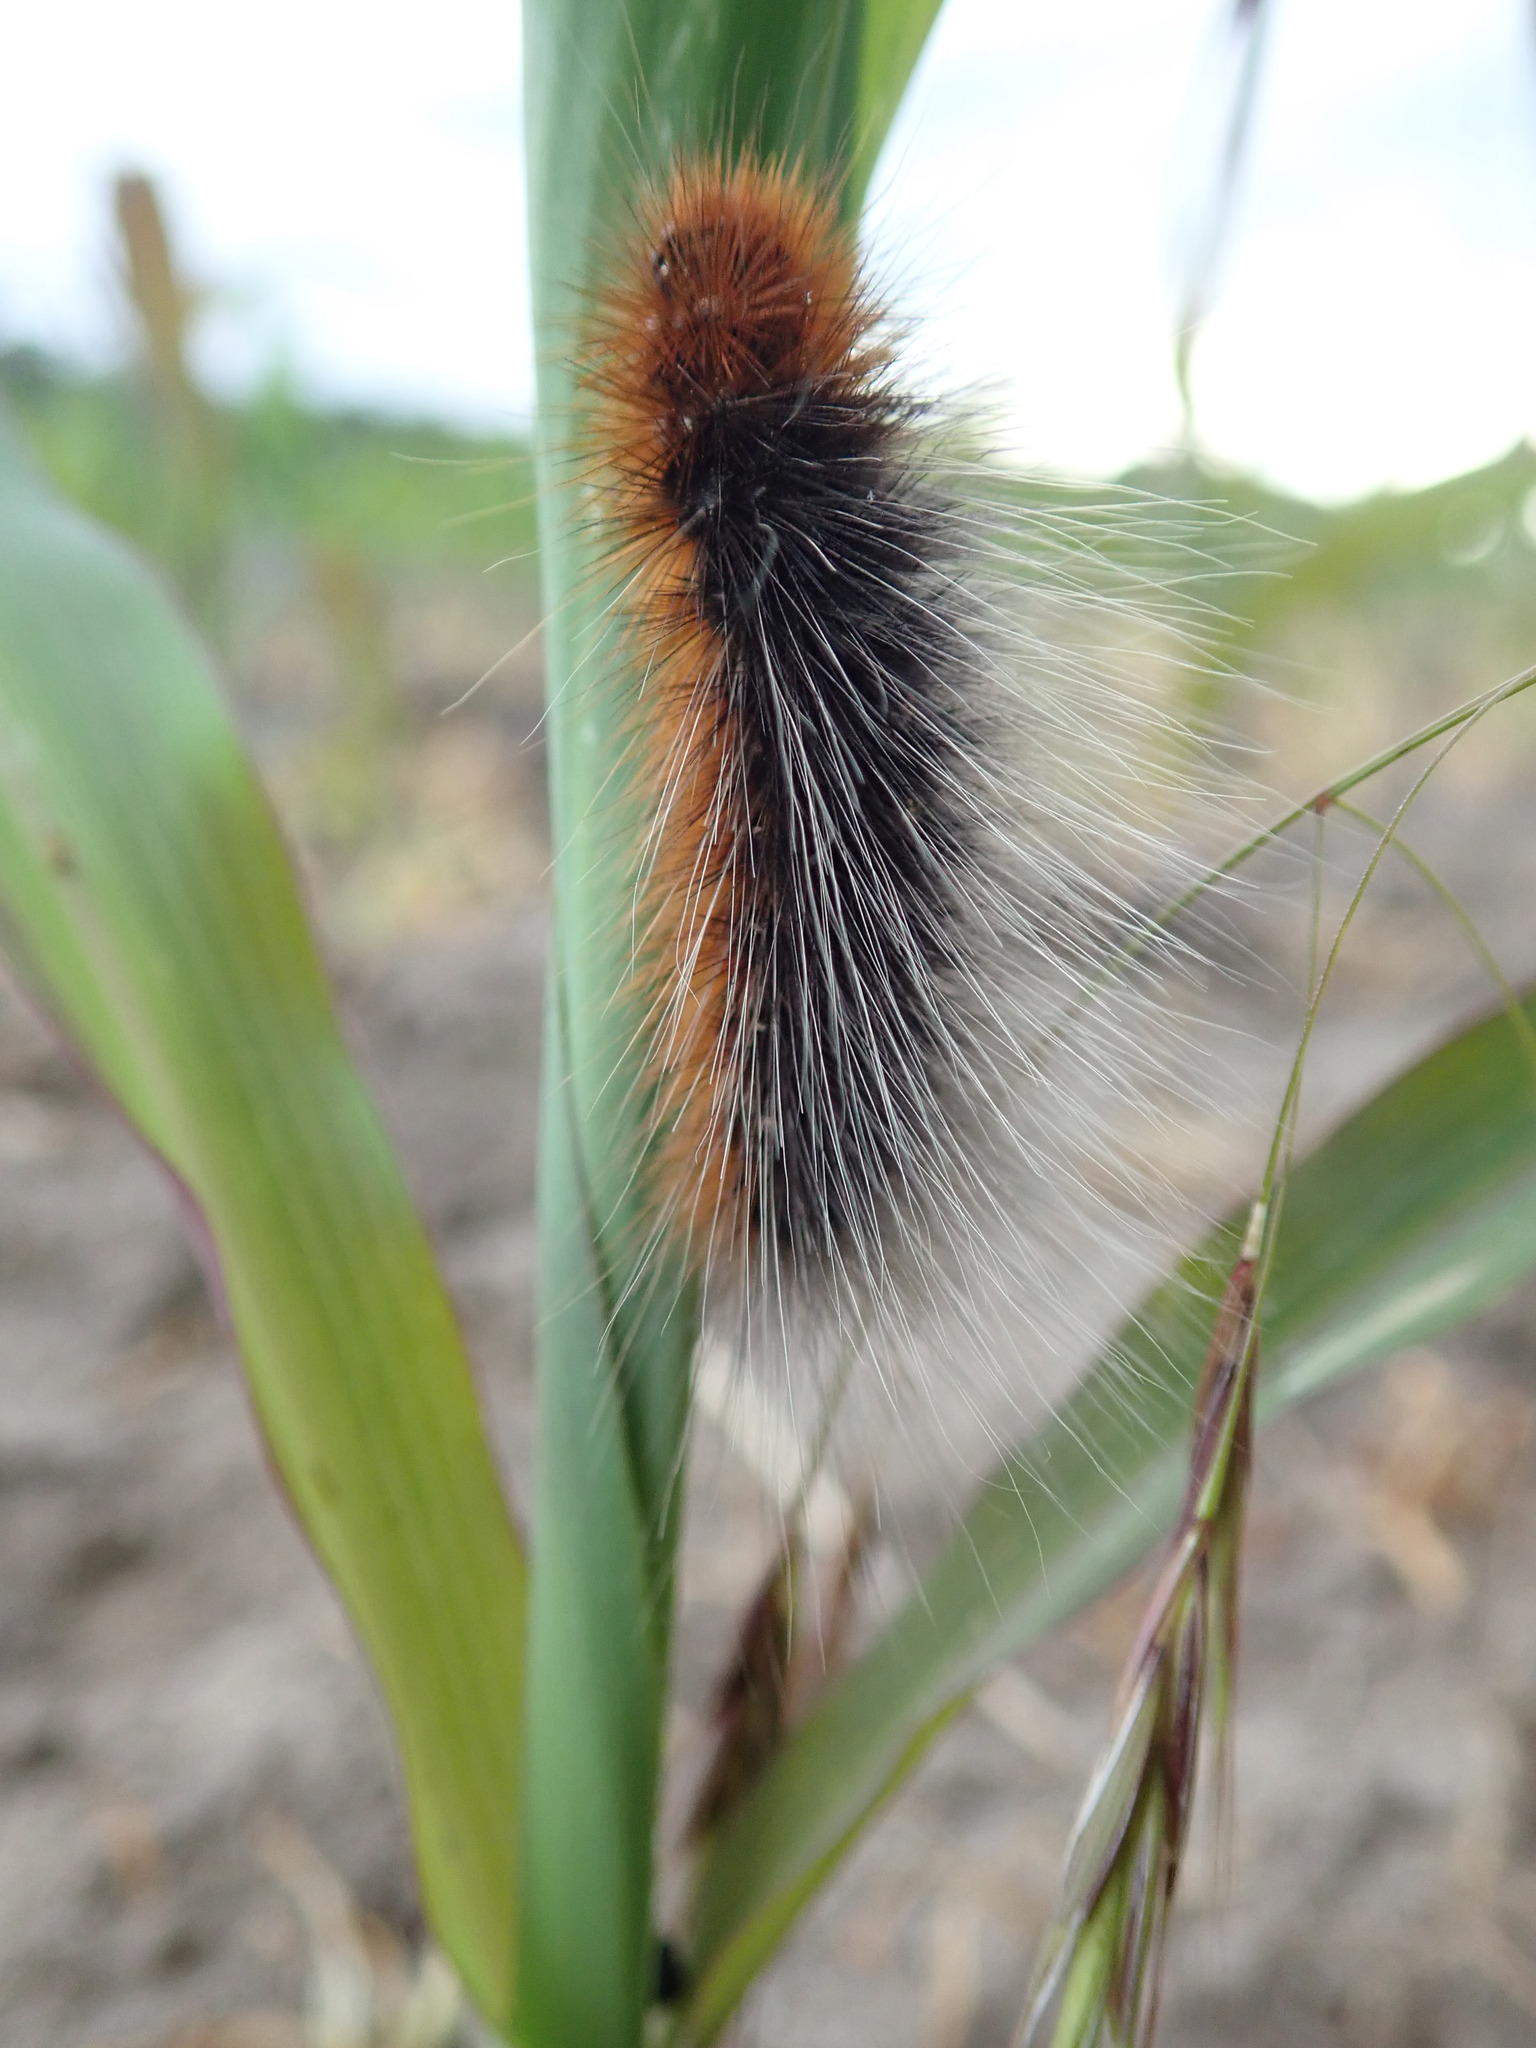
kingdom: Animalia
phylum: Arthropoda
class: Insecta
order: Lepidoptera
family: Erebidae
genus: Arctia
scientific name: Arctia caja
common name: Garden tiger
